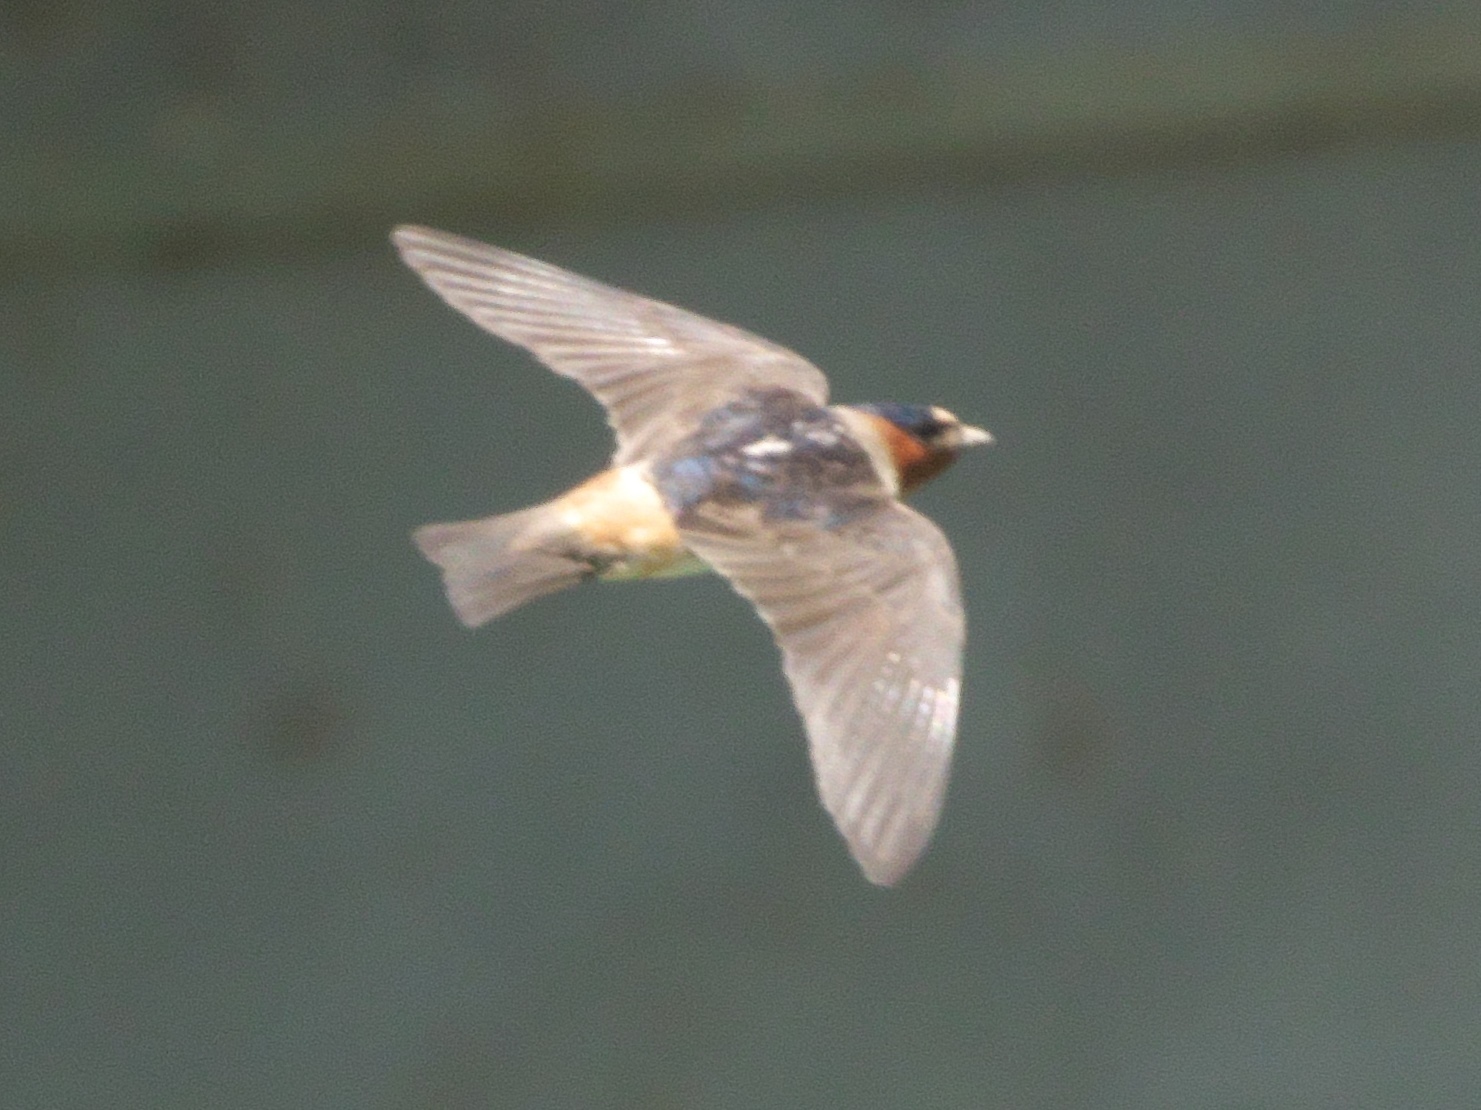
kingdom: Animalia
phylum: Chordata
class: Aves
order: Passeriformes
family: Hirundinidae
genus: Petrochelidon
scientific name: Petrochelidon pyrrhonota
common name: American cliff swallow
